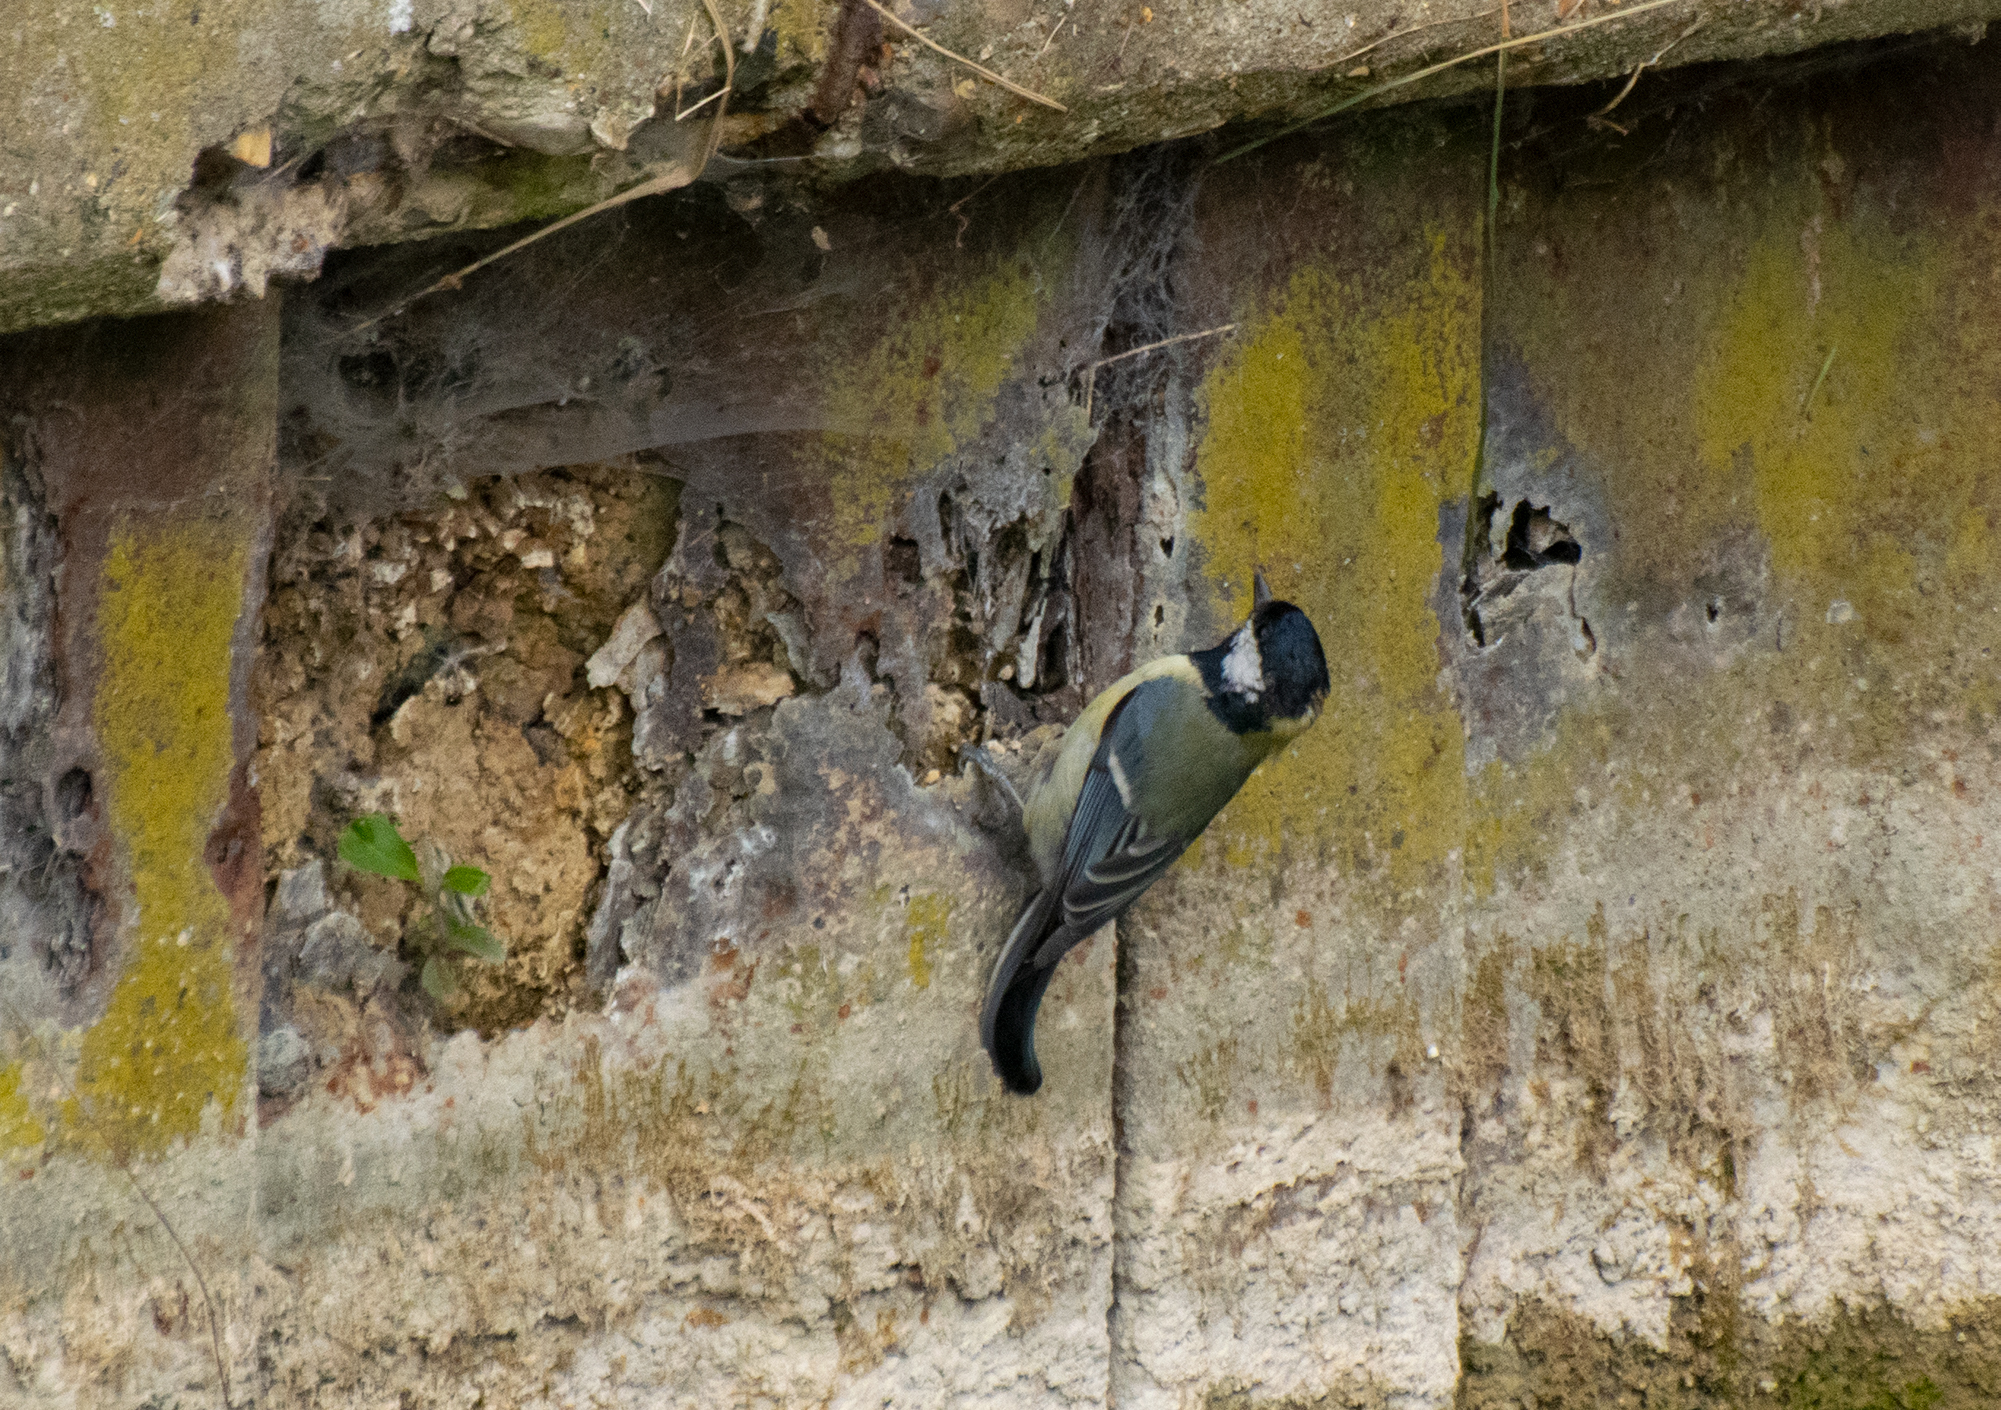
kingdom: Animalia
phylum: Chordata
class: Aves
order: Passeriformes
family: Paridae
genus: Parus
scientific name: Parus major
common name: Great tit
